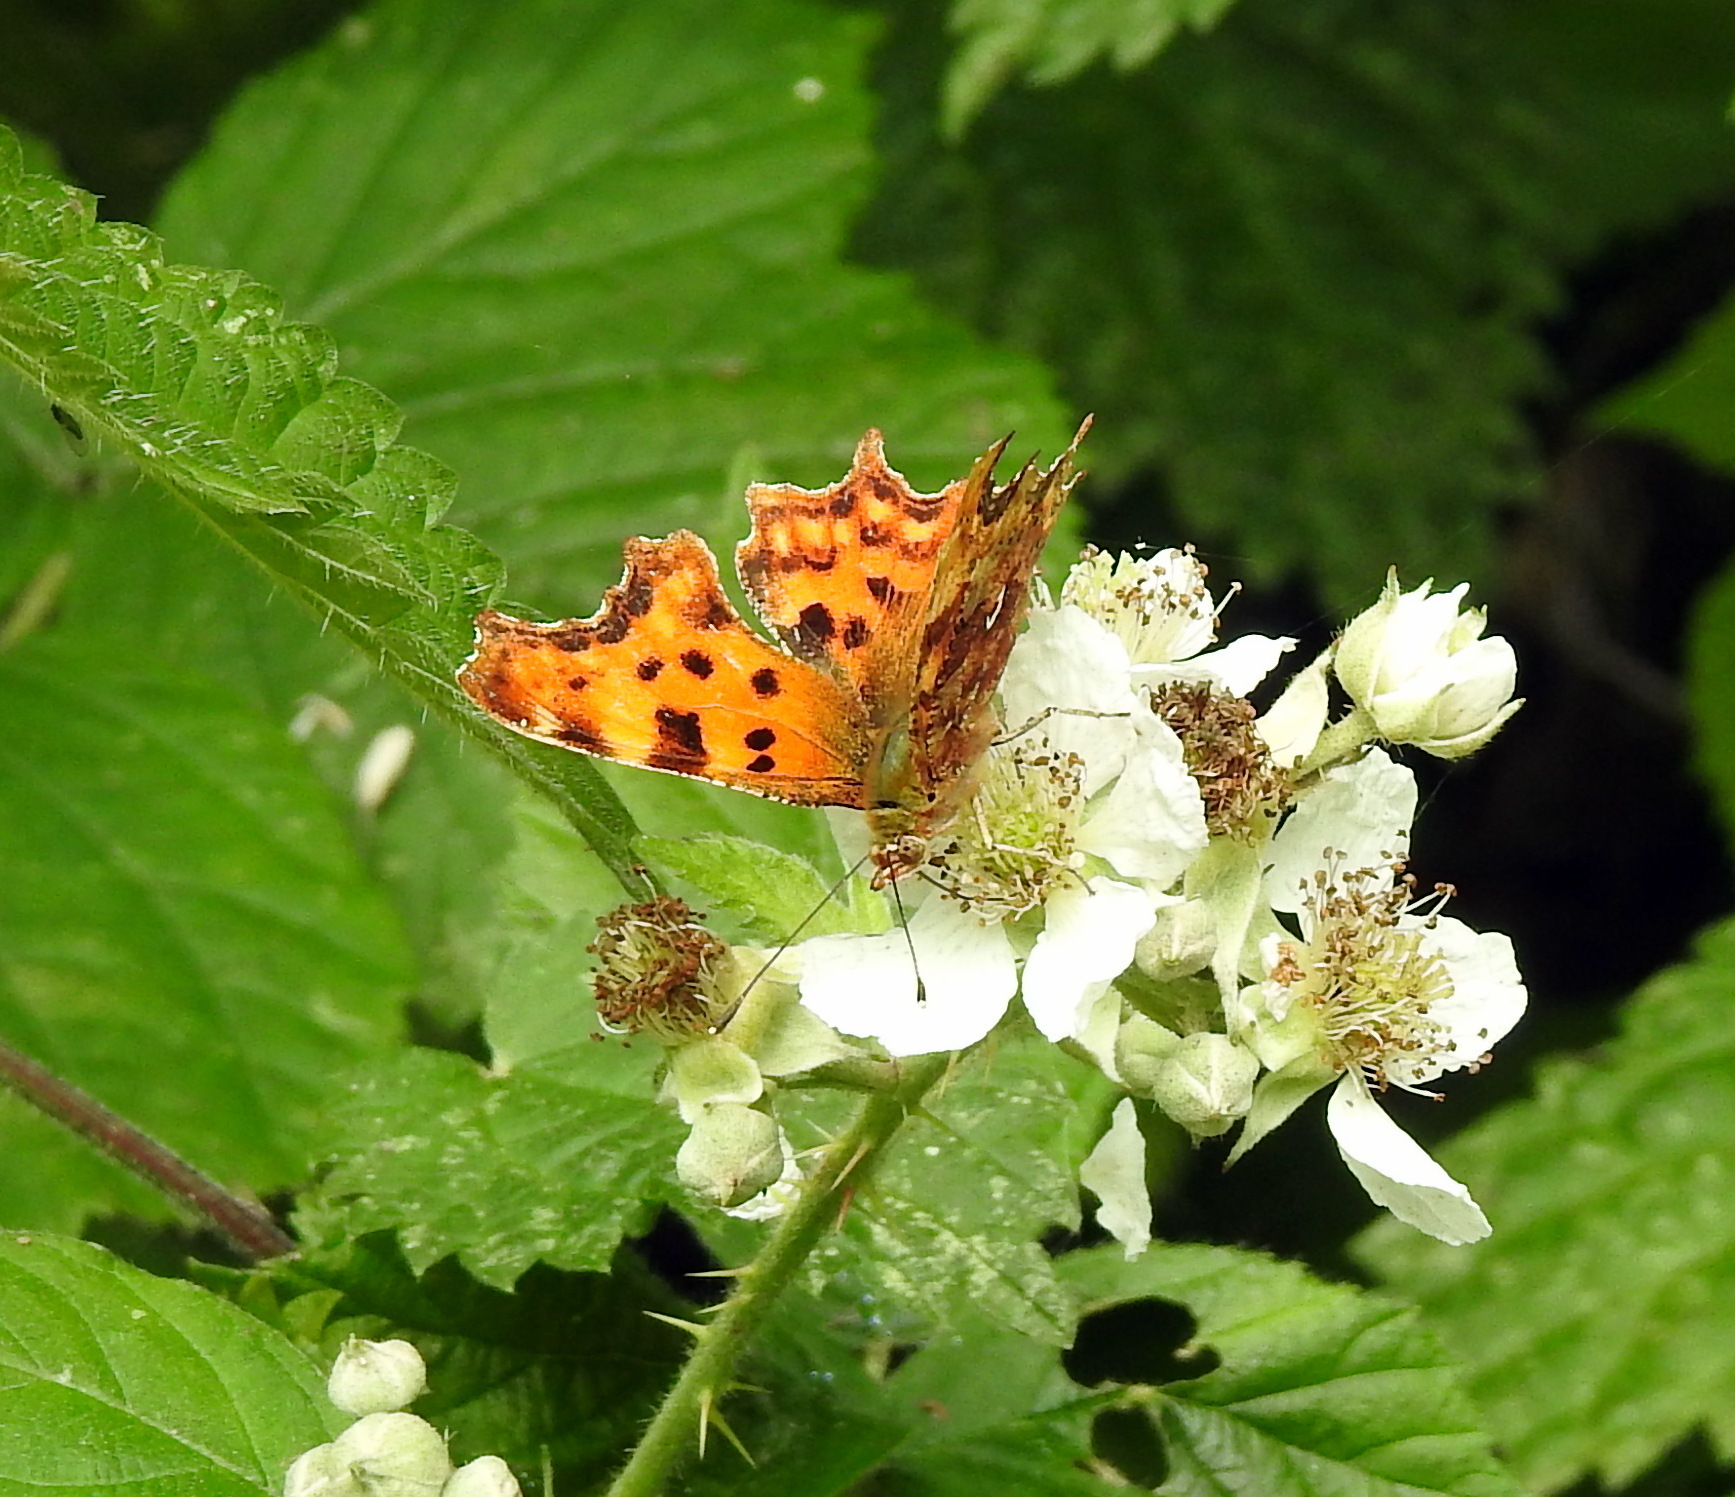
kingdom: Animalia
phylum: Arthropoda
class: Insecta
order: Lepidoptera
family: Nymphalidae
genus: Polygonia
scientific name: Polygonia c-album
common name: Comma
